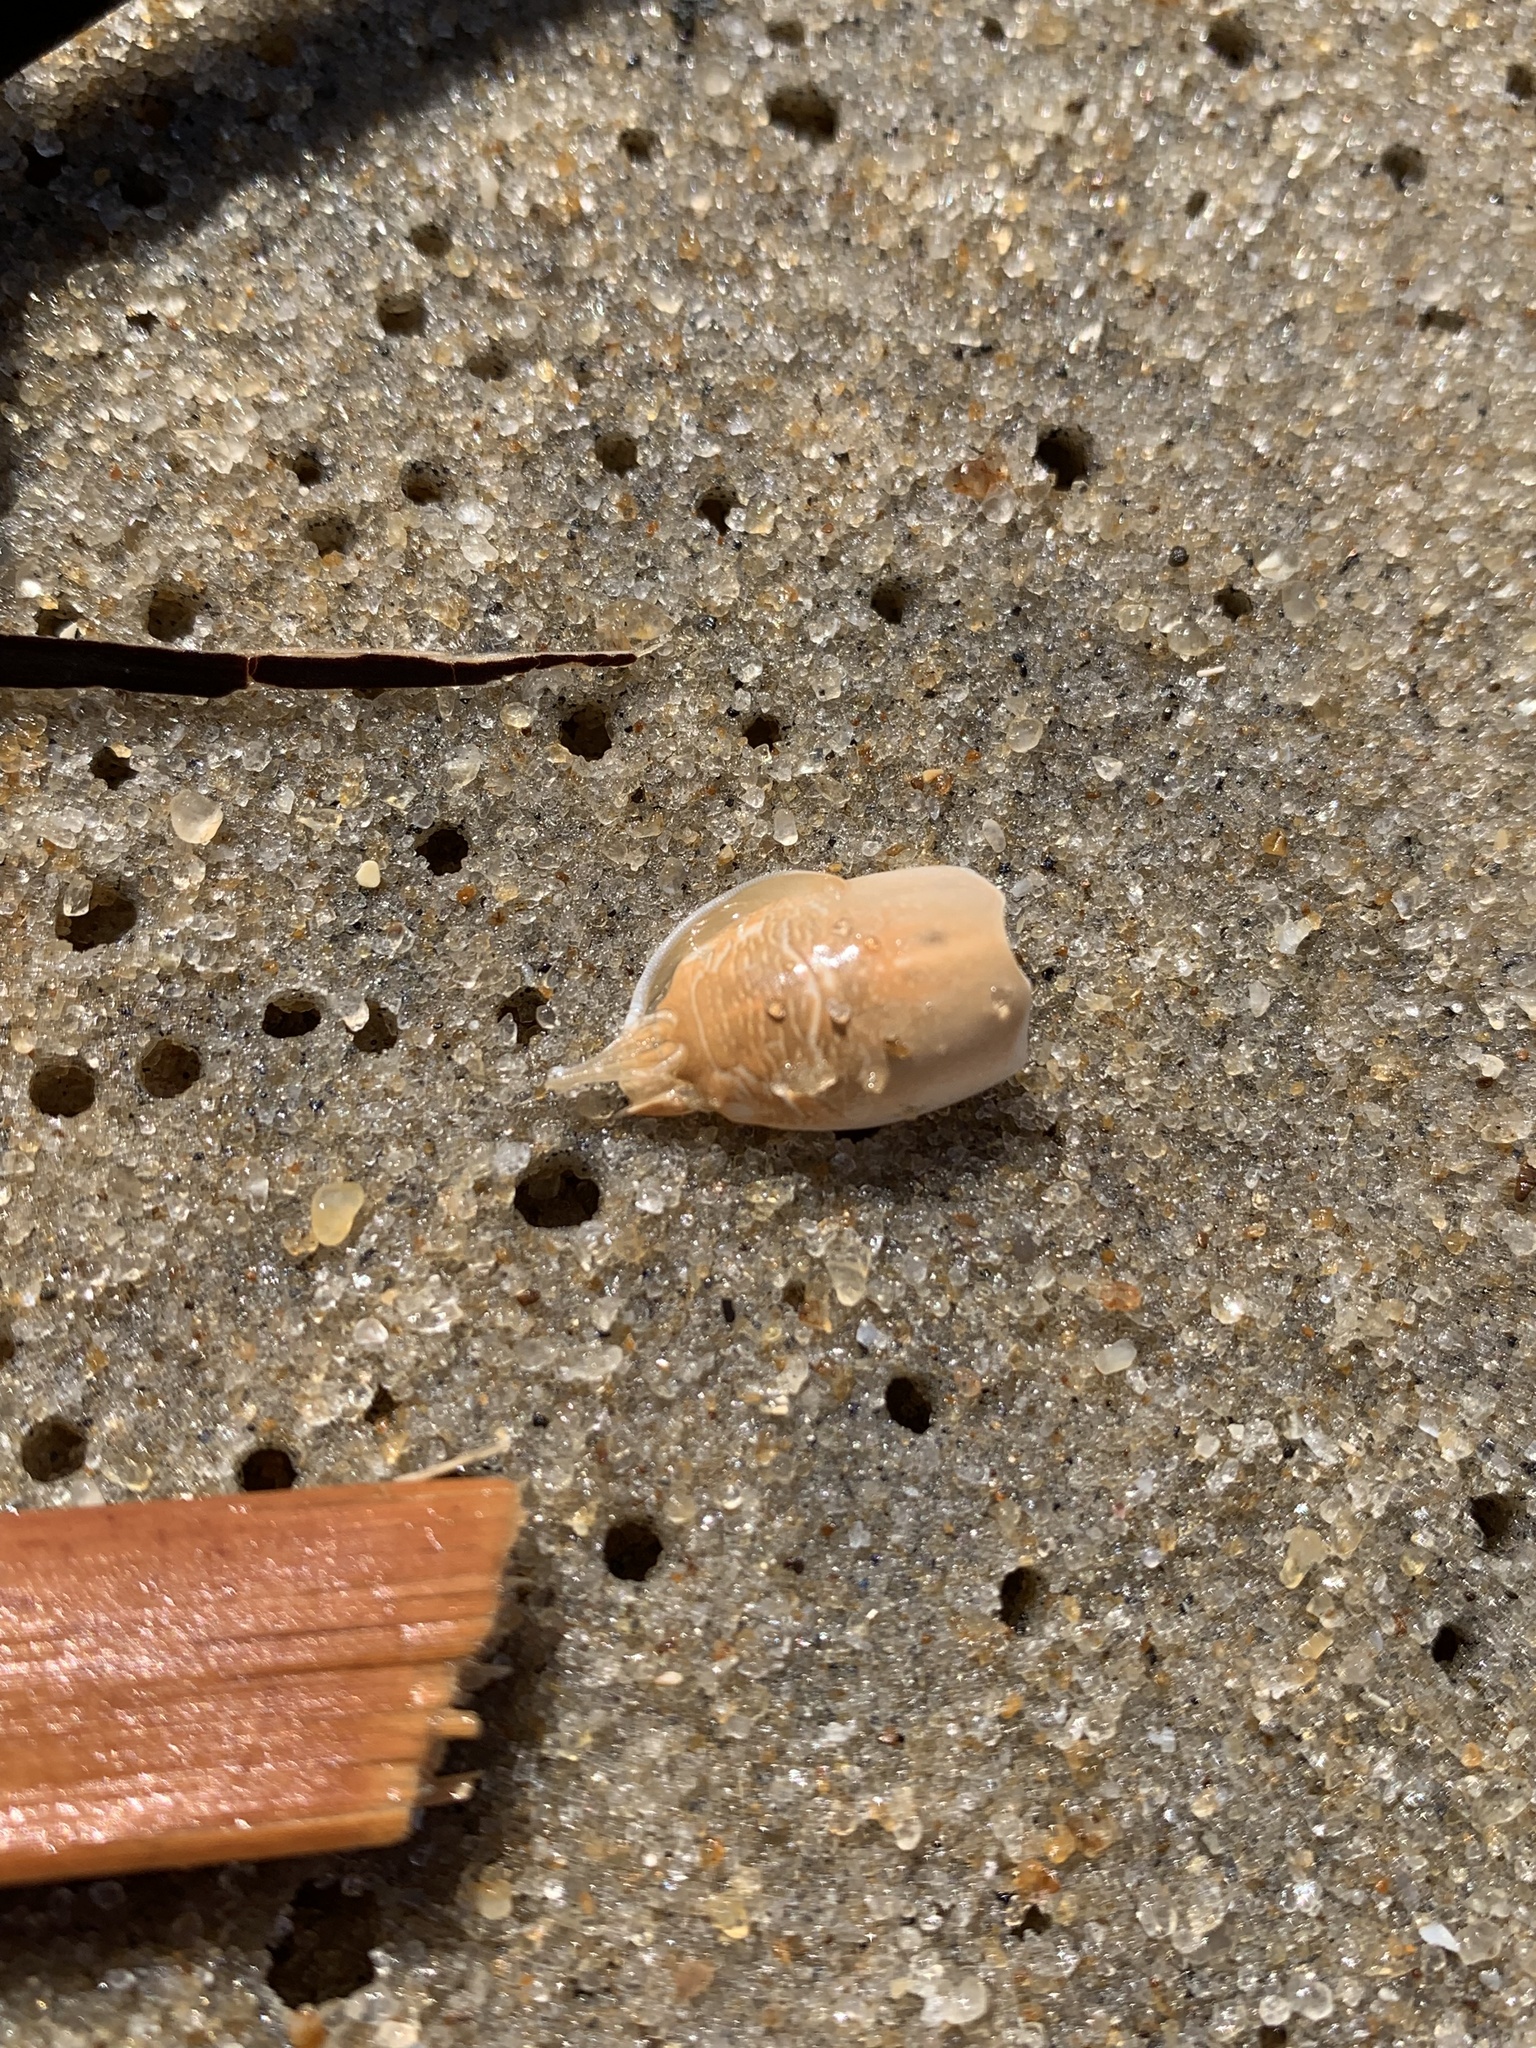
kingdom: Animalia
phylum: Arthropoda
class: Malacostraca
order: Decapoda
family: Hippidae
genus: Emerita
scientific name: Emerita brasiliensis
